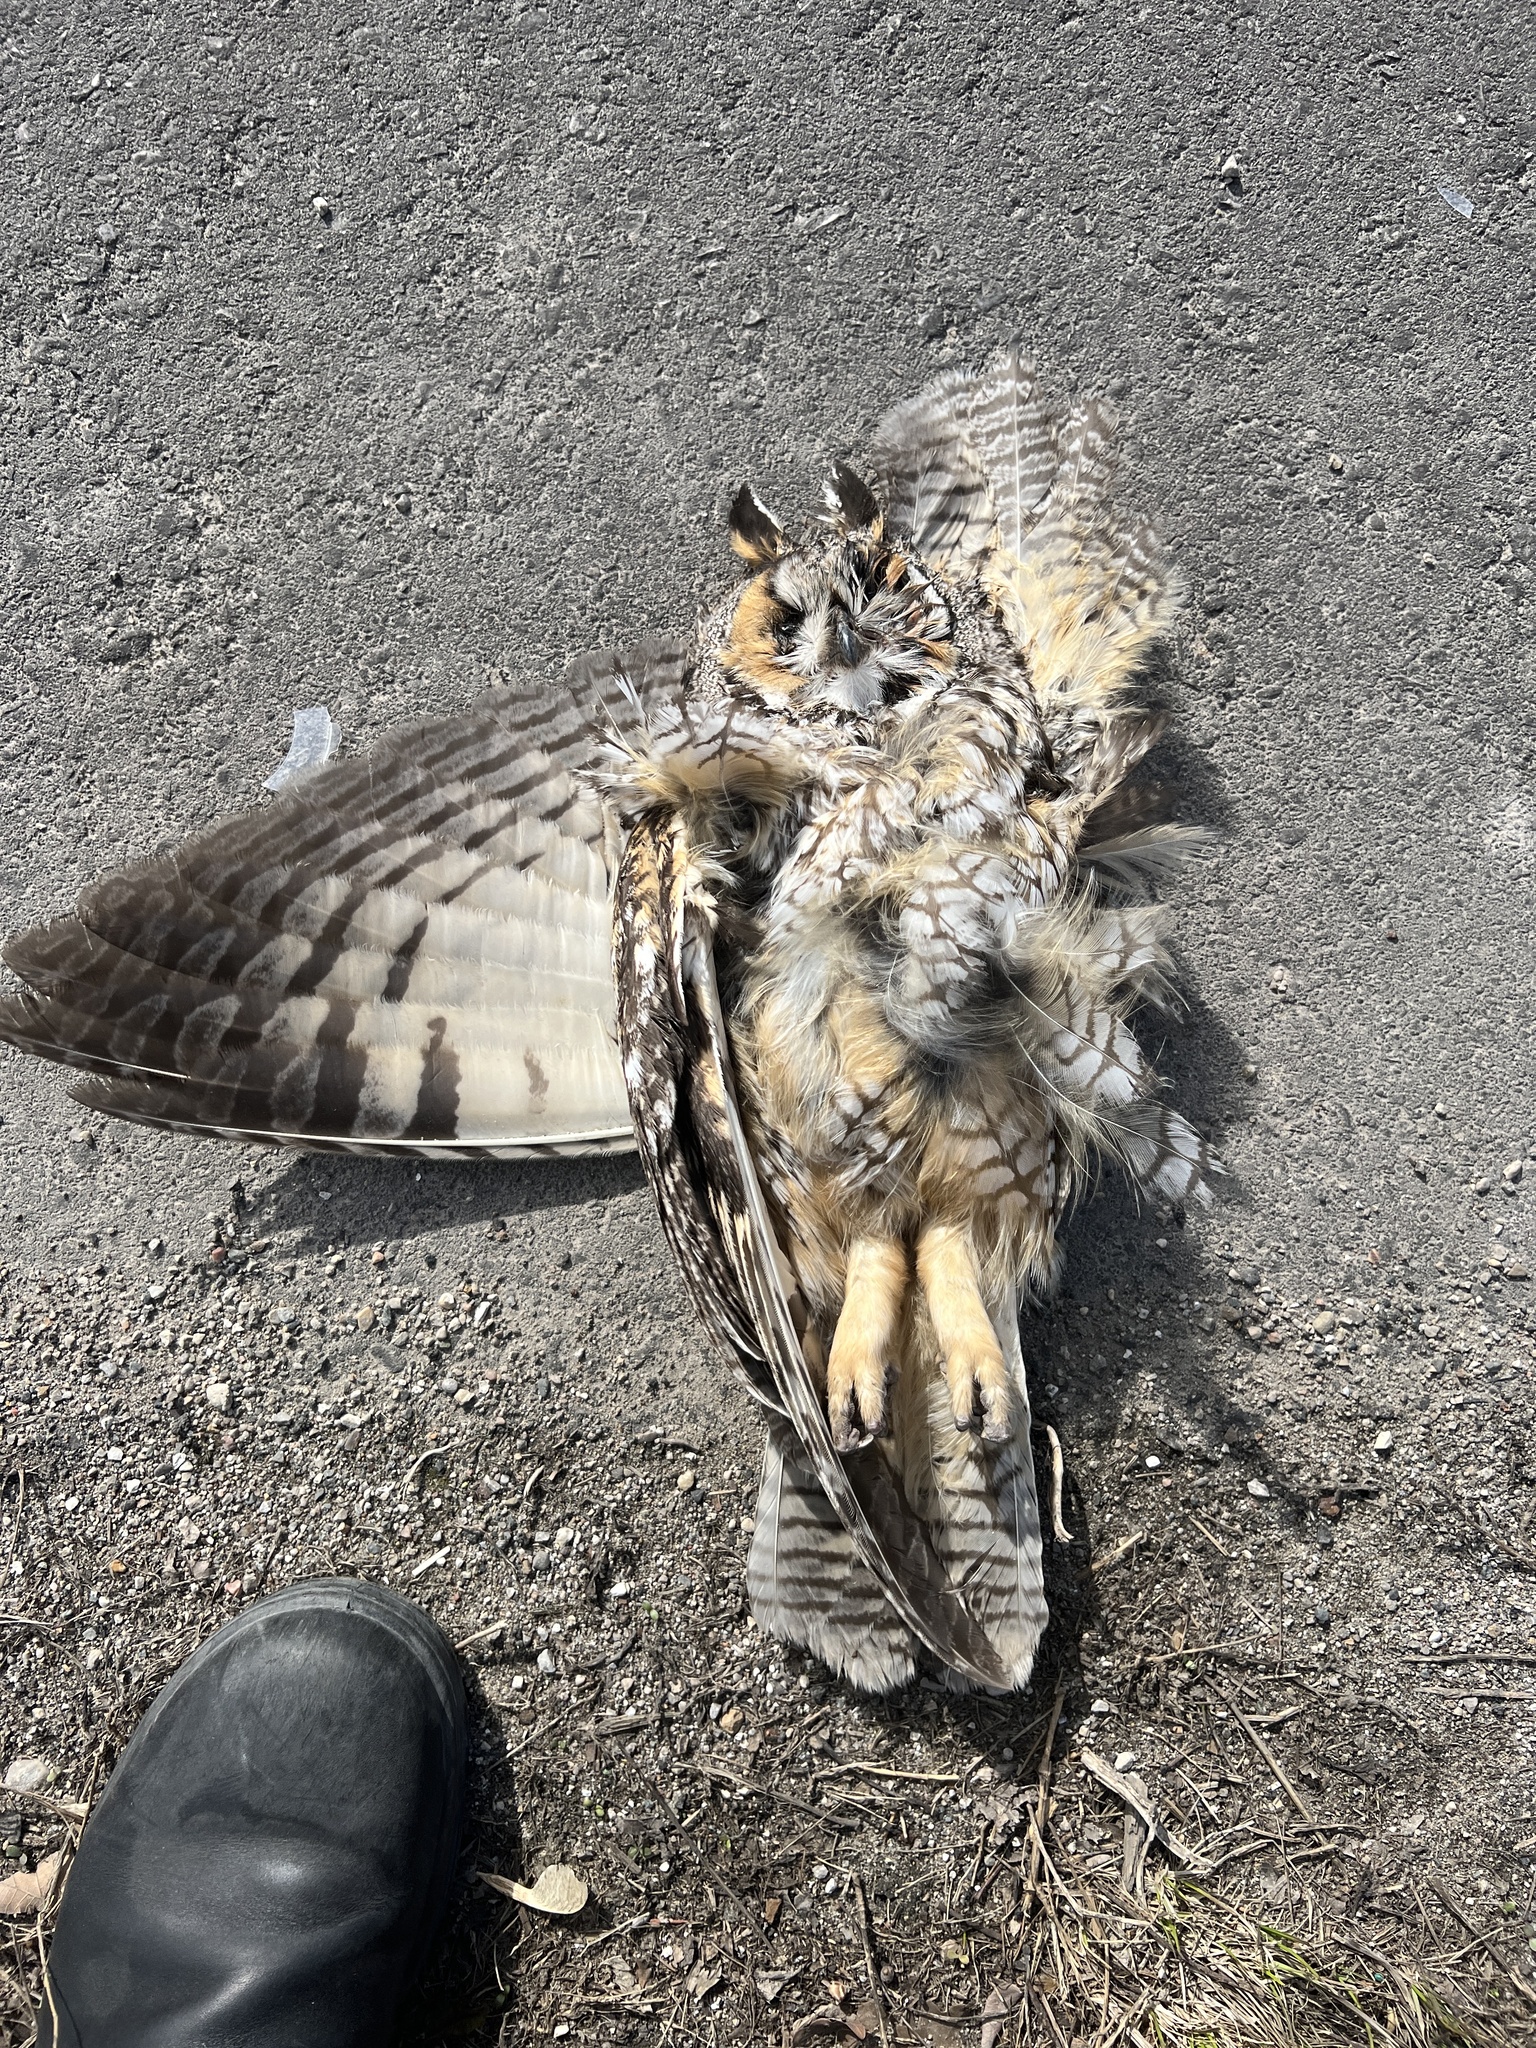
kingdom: Animalia
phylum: Chordata
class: Aves
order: Strigiformes
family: Strigidae
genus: Asio
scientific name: Asio otus
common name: Long-eared owl
